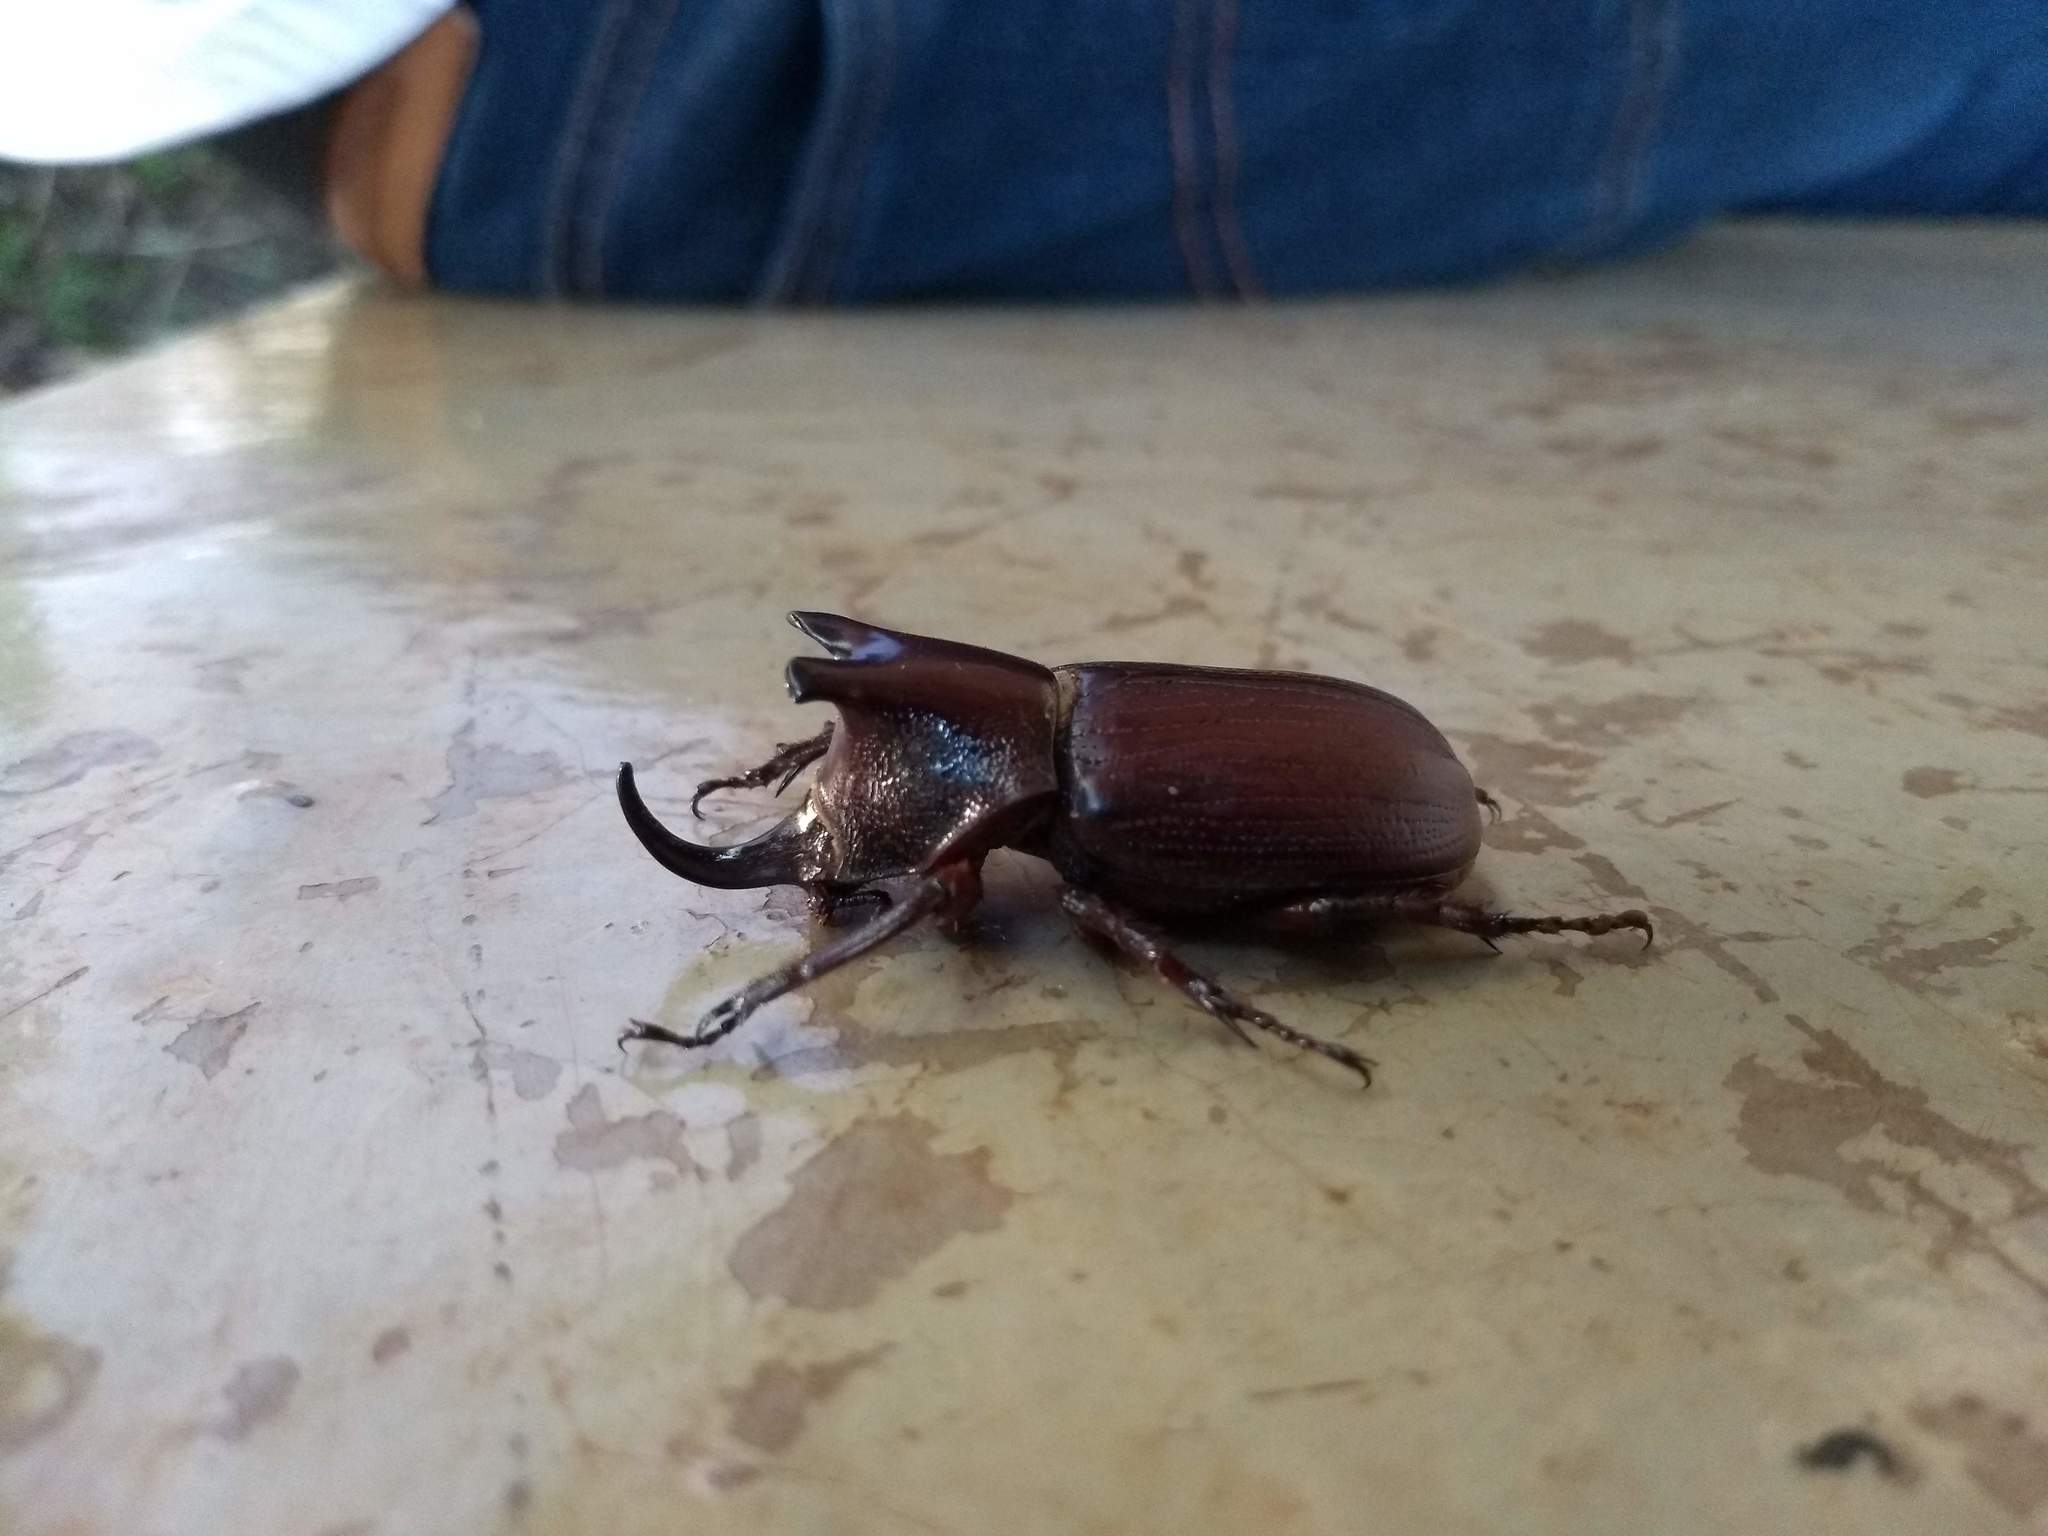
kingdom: Animalia
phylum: Arthropoda
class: Insecta
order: Coleoptera
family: Scarabaeidae
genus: Coelosis
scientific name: Coelosis biloba
